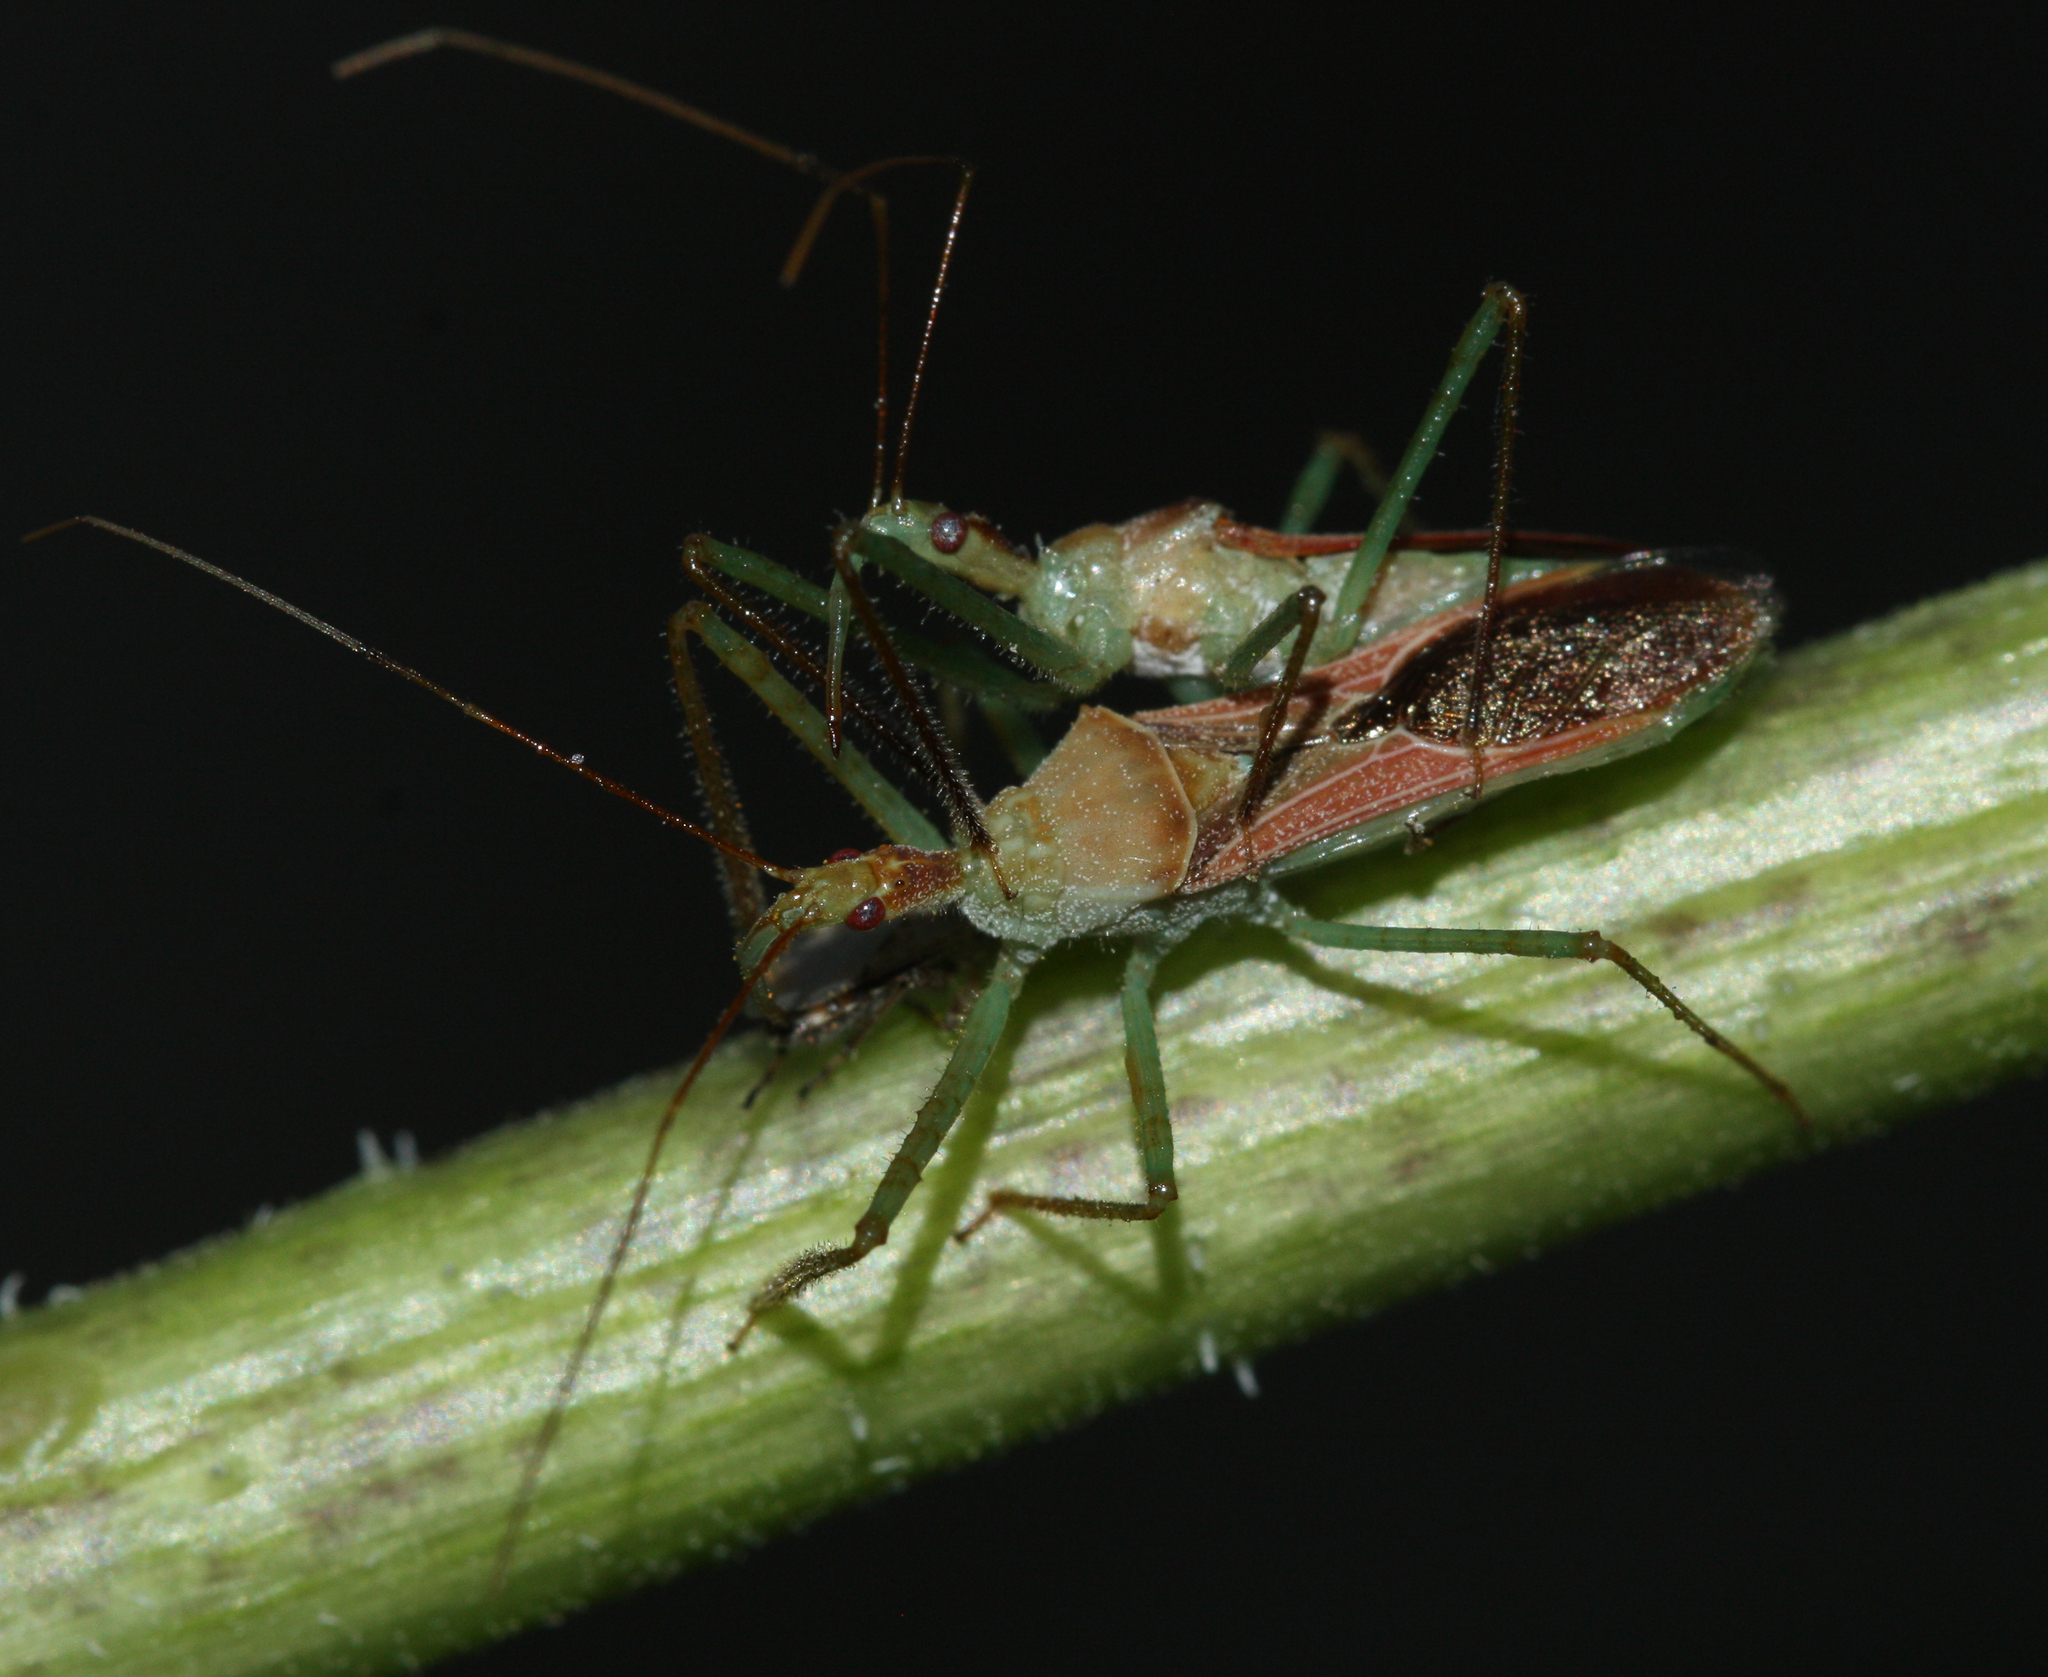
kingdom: Animalia
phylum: Arthropoda
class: Insecta
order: Hemiptera
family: Reduviidae
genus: Zelus
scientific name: Zelus renardii
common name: Assassin bug
